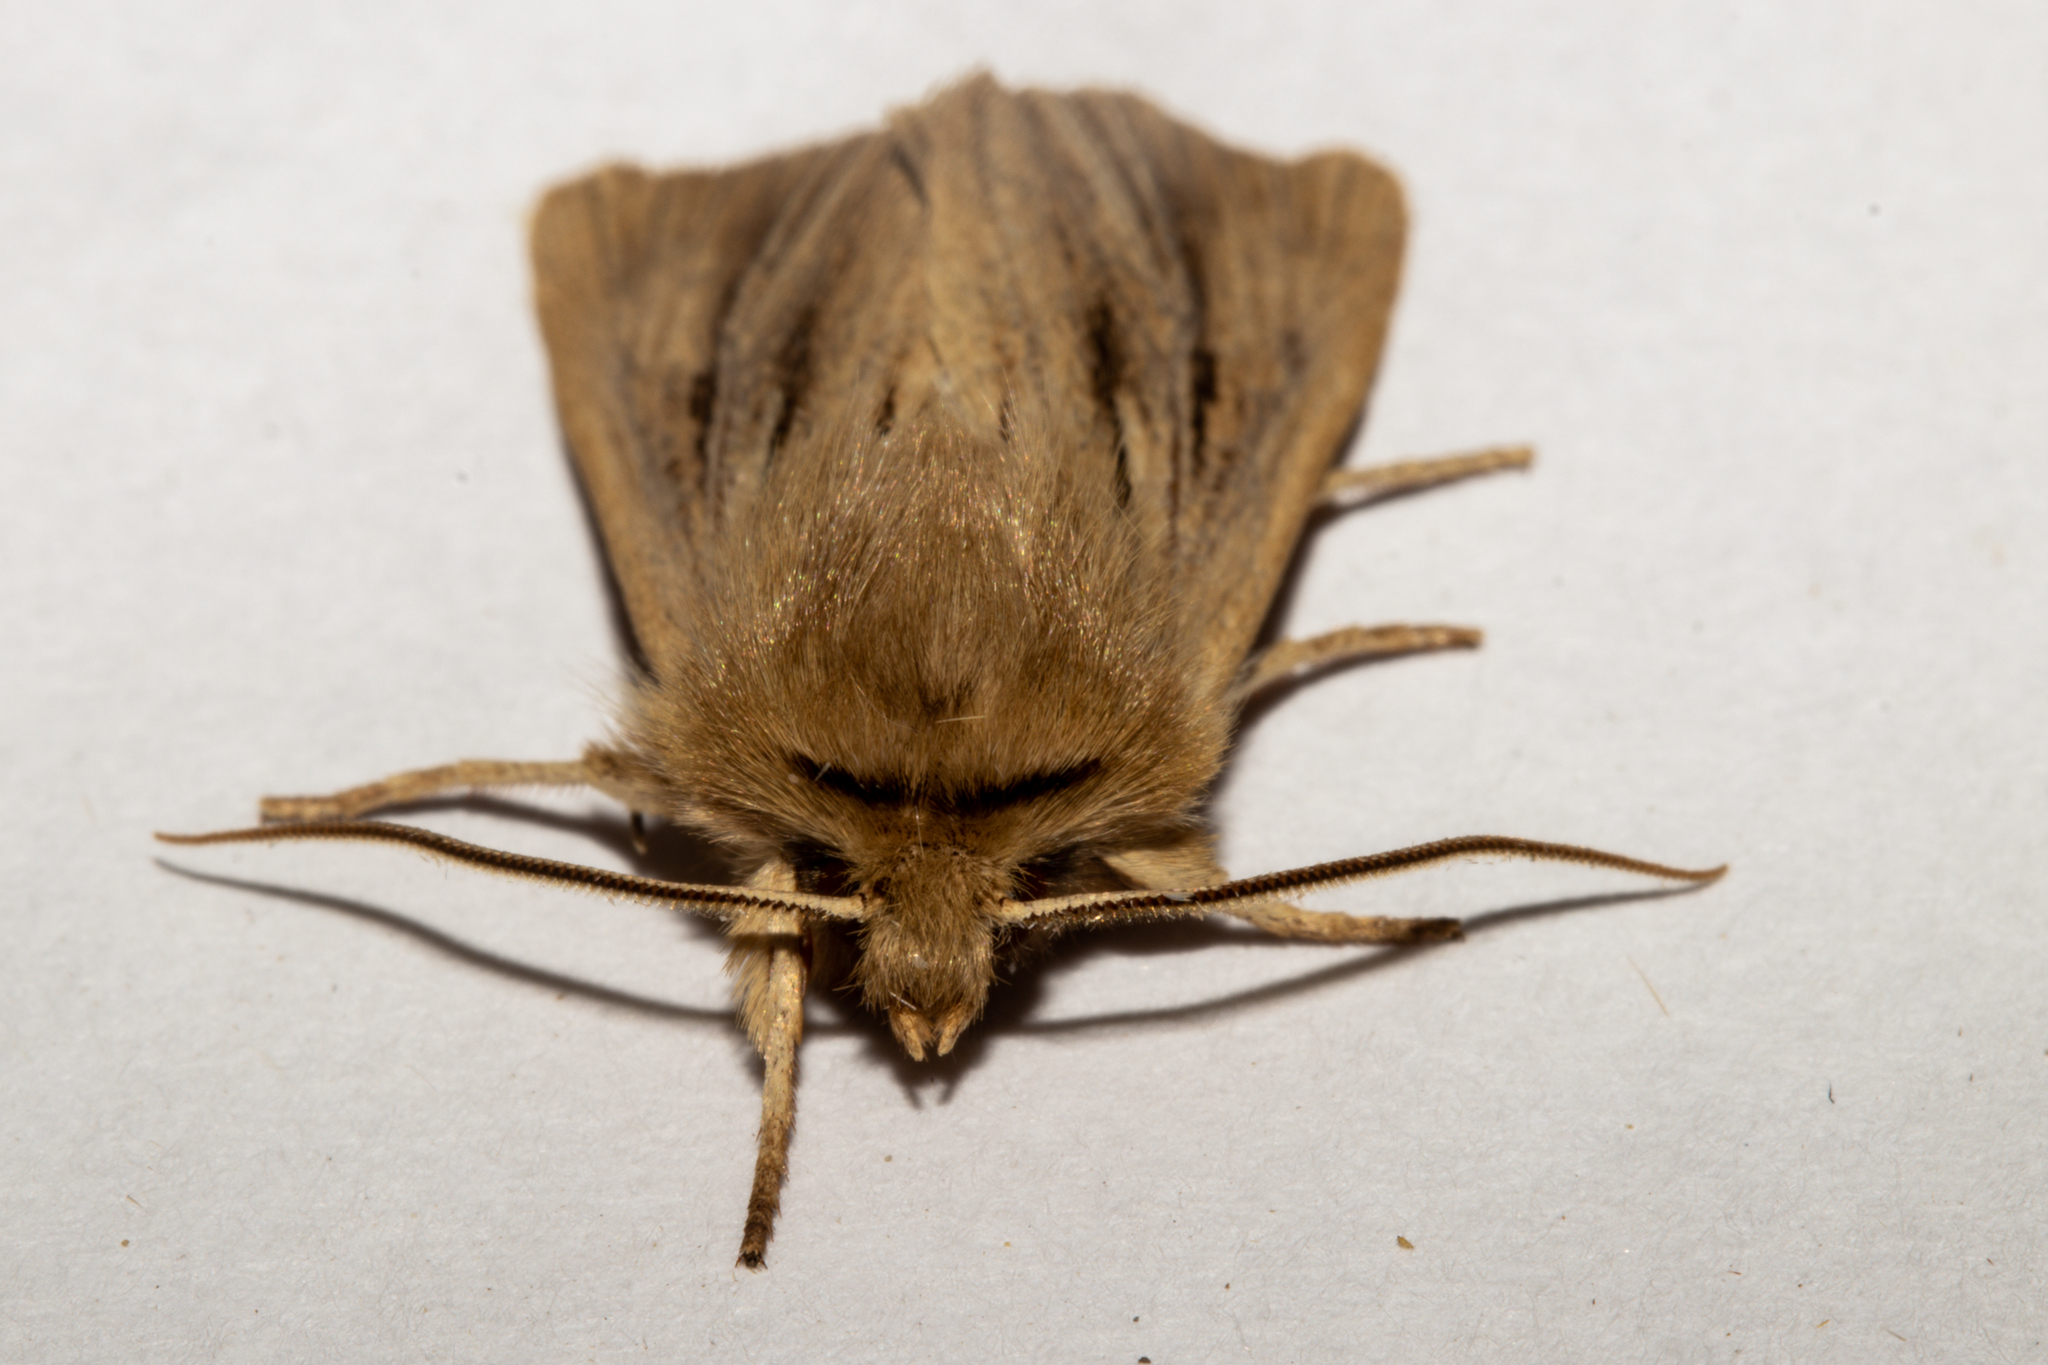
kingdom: Animalia
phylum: Arthropoda
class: Insecta
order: Lepidoptera
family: Noctuidae
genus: Ichneutica
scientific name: Ichneutica
